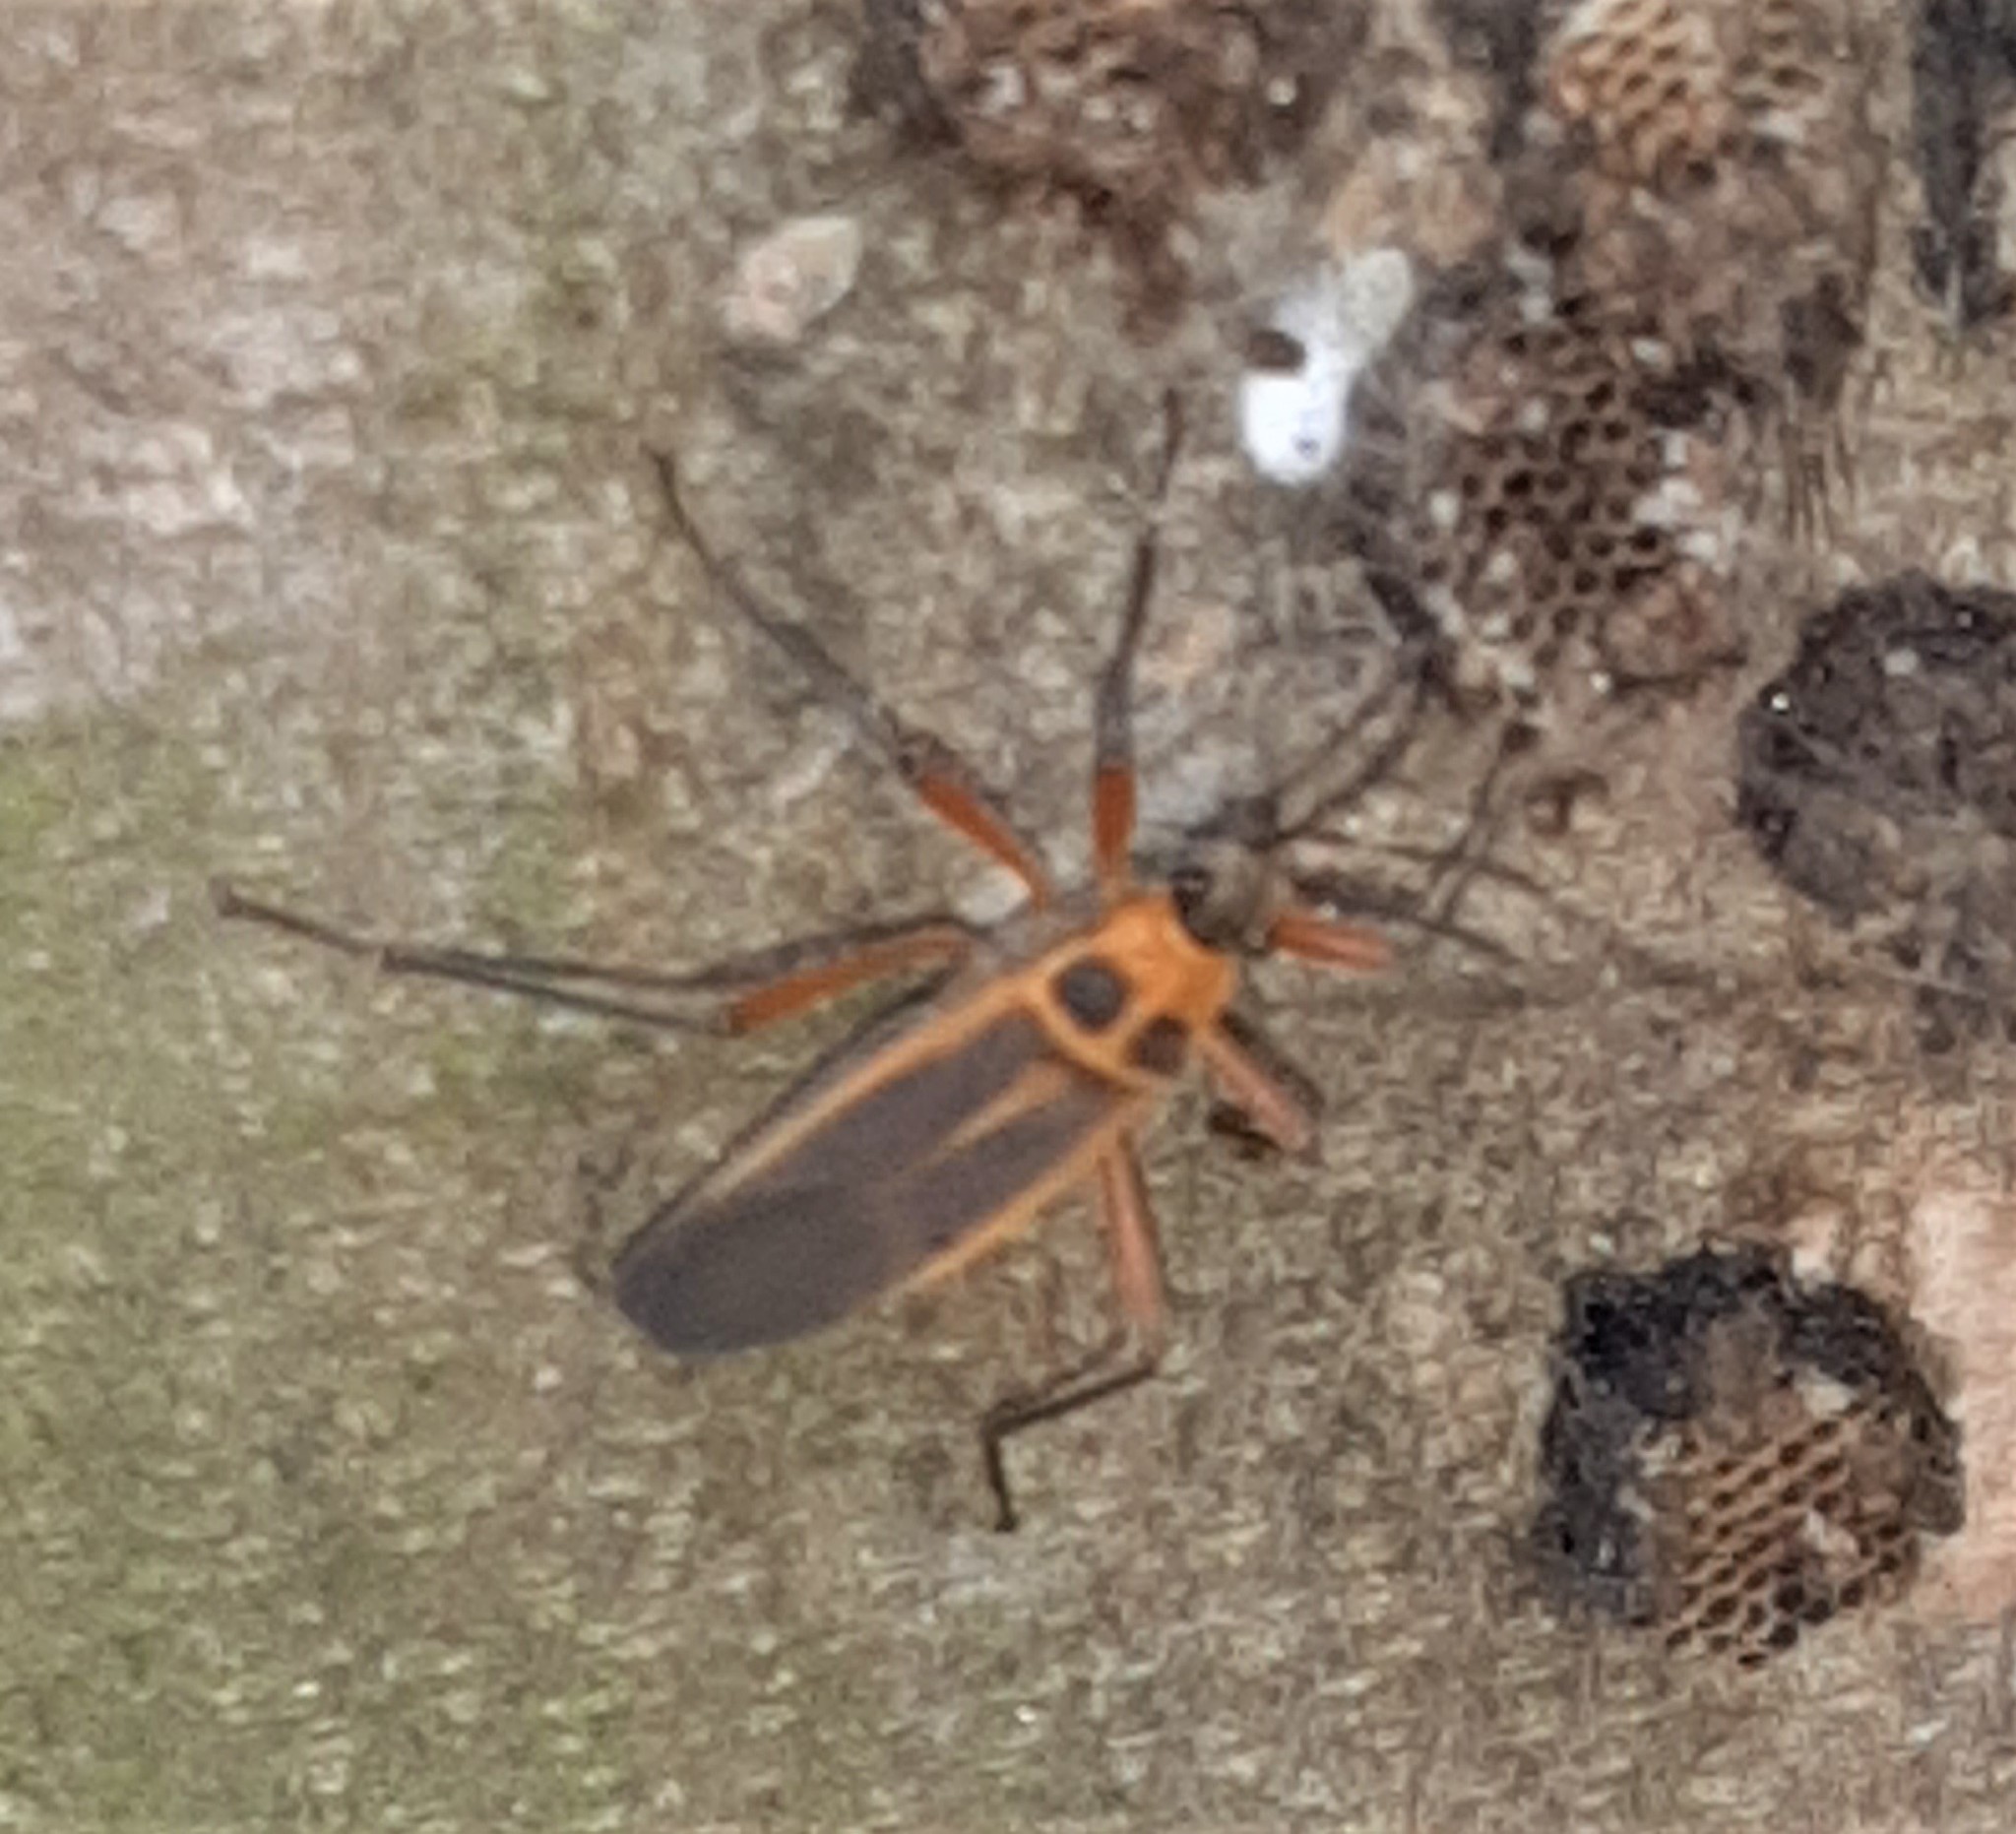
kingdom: Animalia
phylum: Arthropoda
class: Insecta
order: Hemiptera
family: Largidae
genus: Stenomacra
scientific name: Stenomacra marginella
